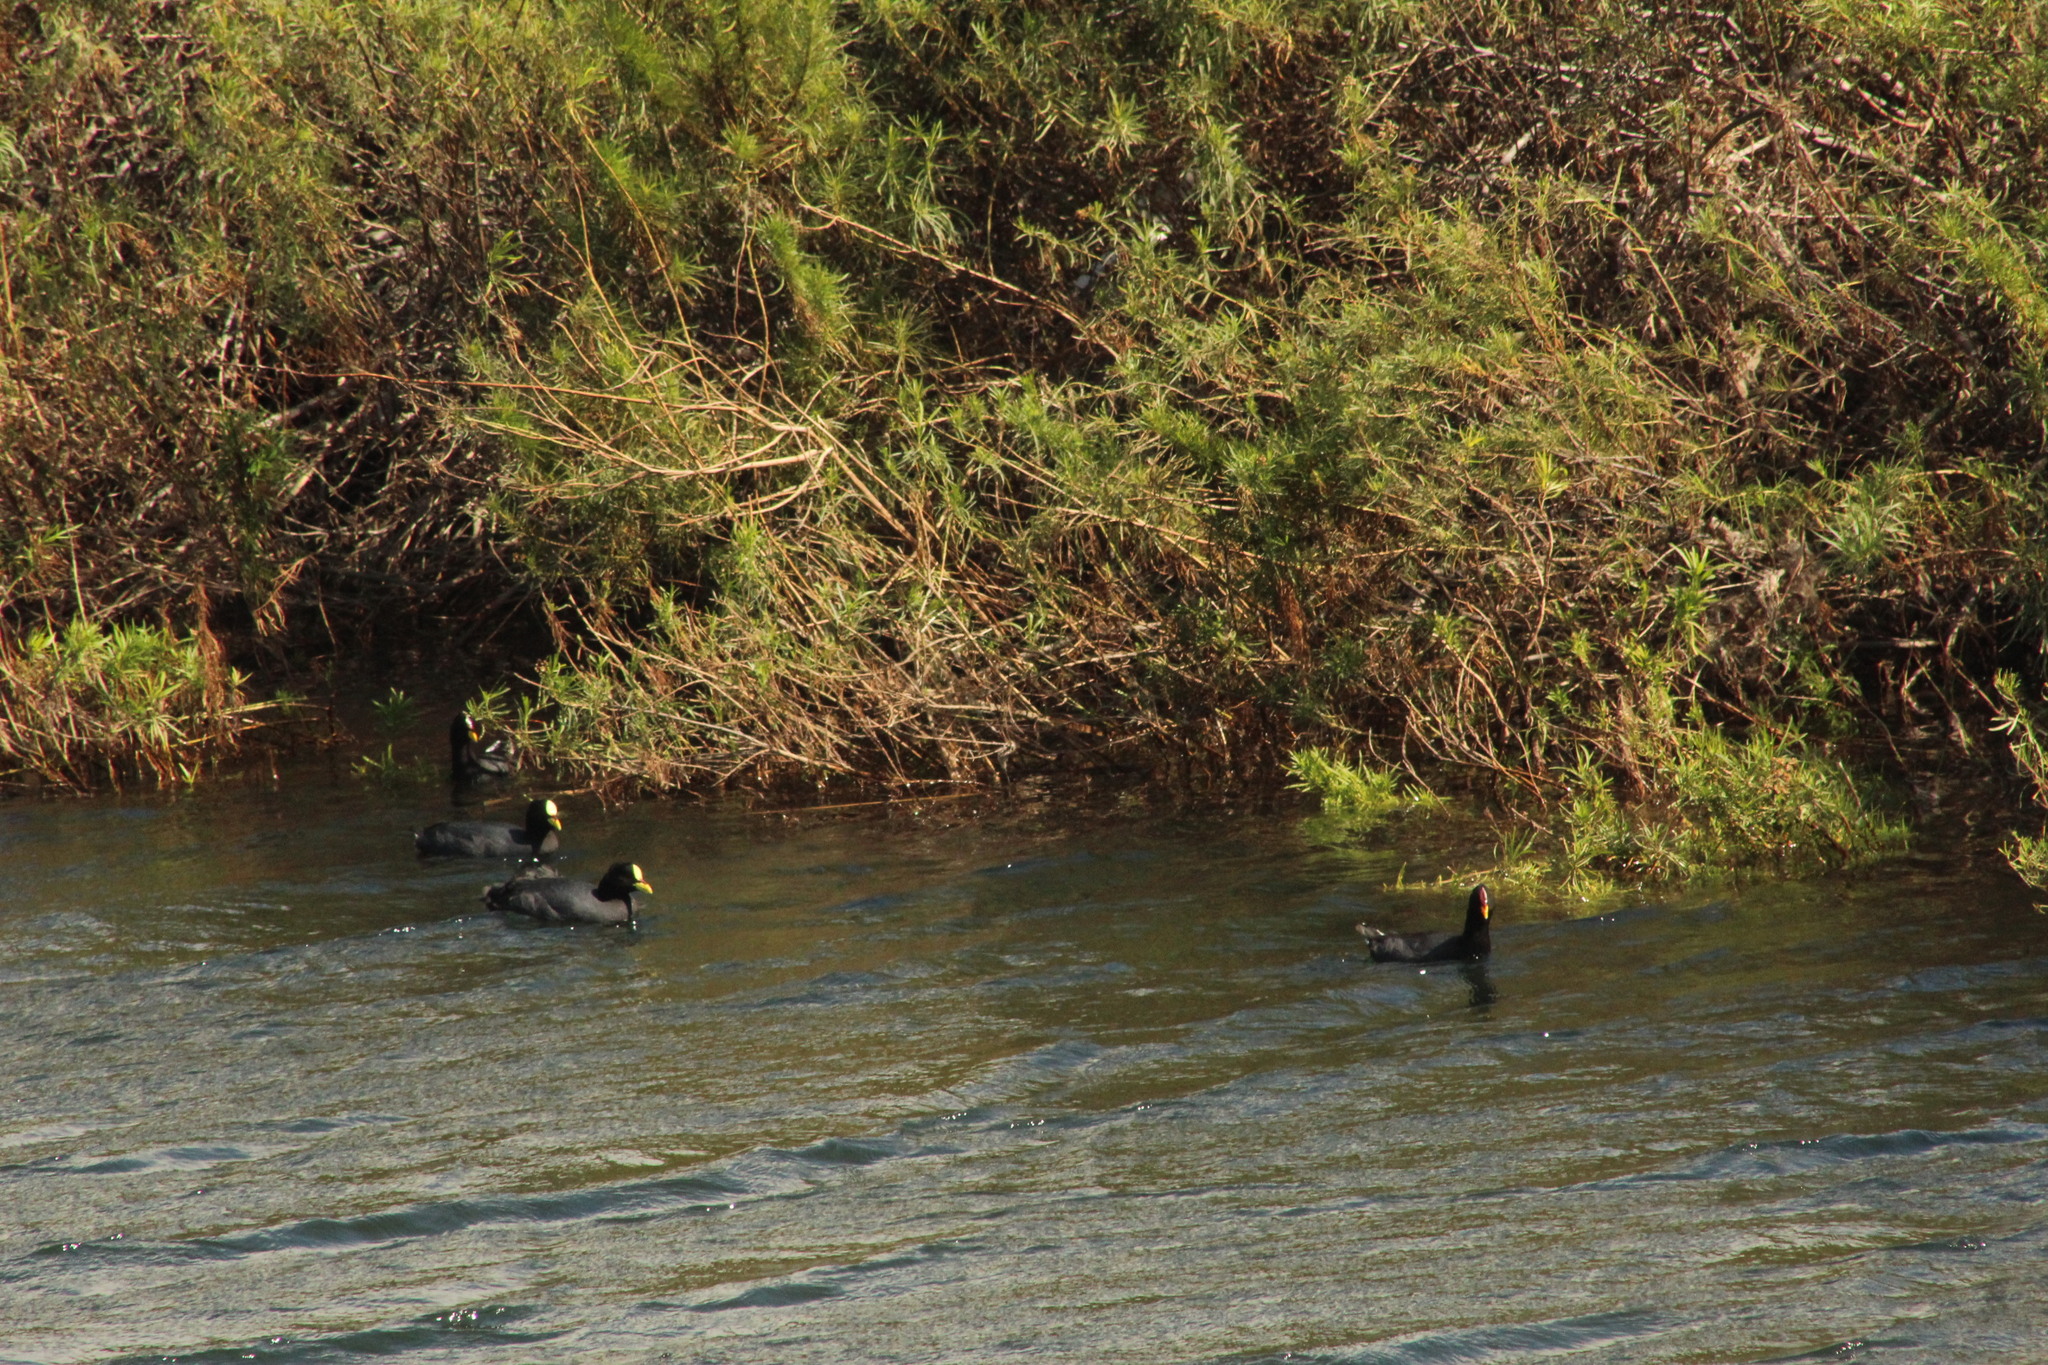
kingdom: Animalia
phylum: Chordata
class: Aves
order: Gruiformes
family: Rallidae
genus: Fulica
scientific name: Fulica armillata
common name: Red-gartered coot
